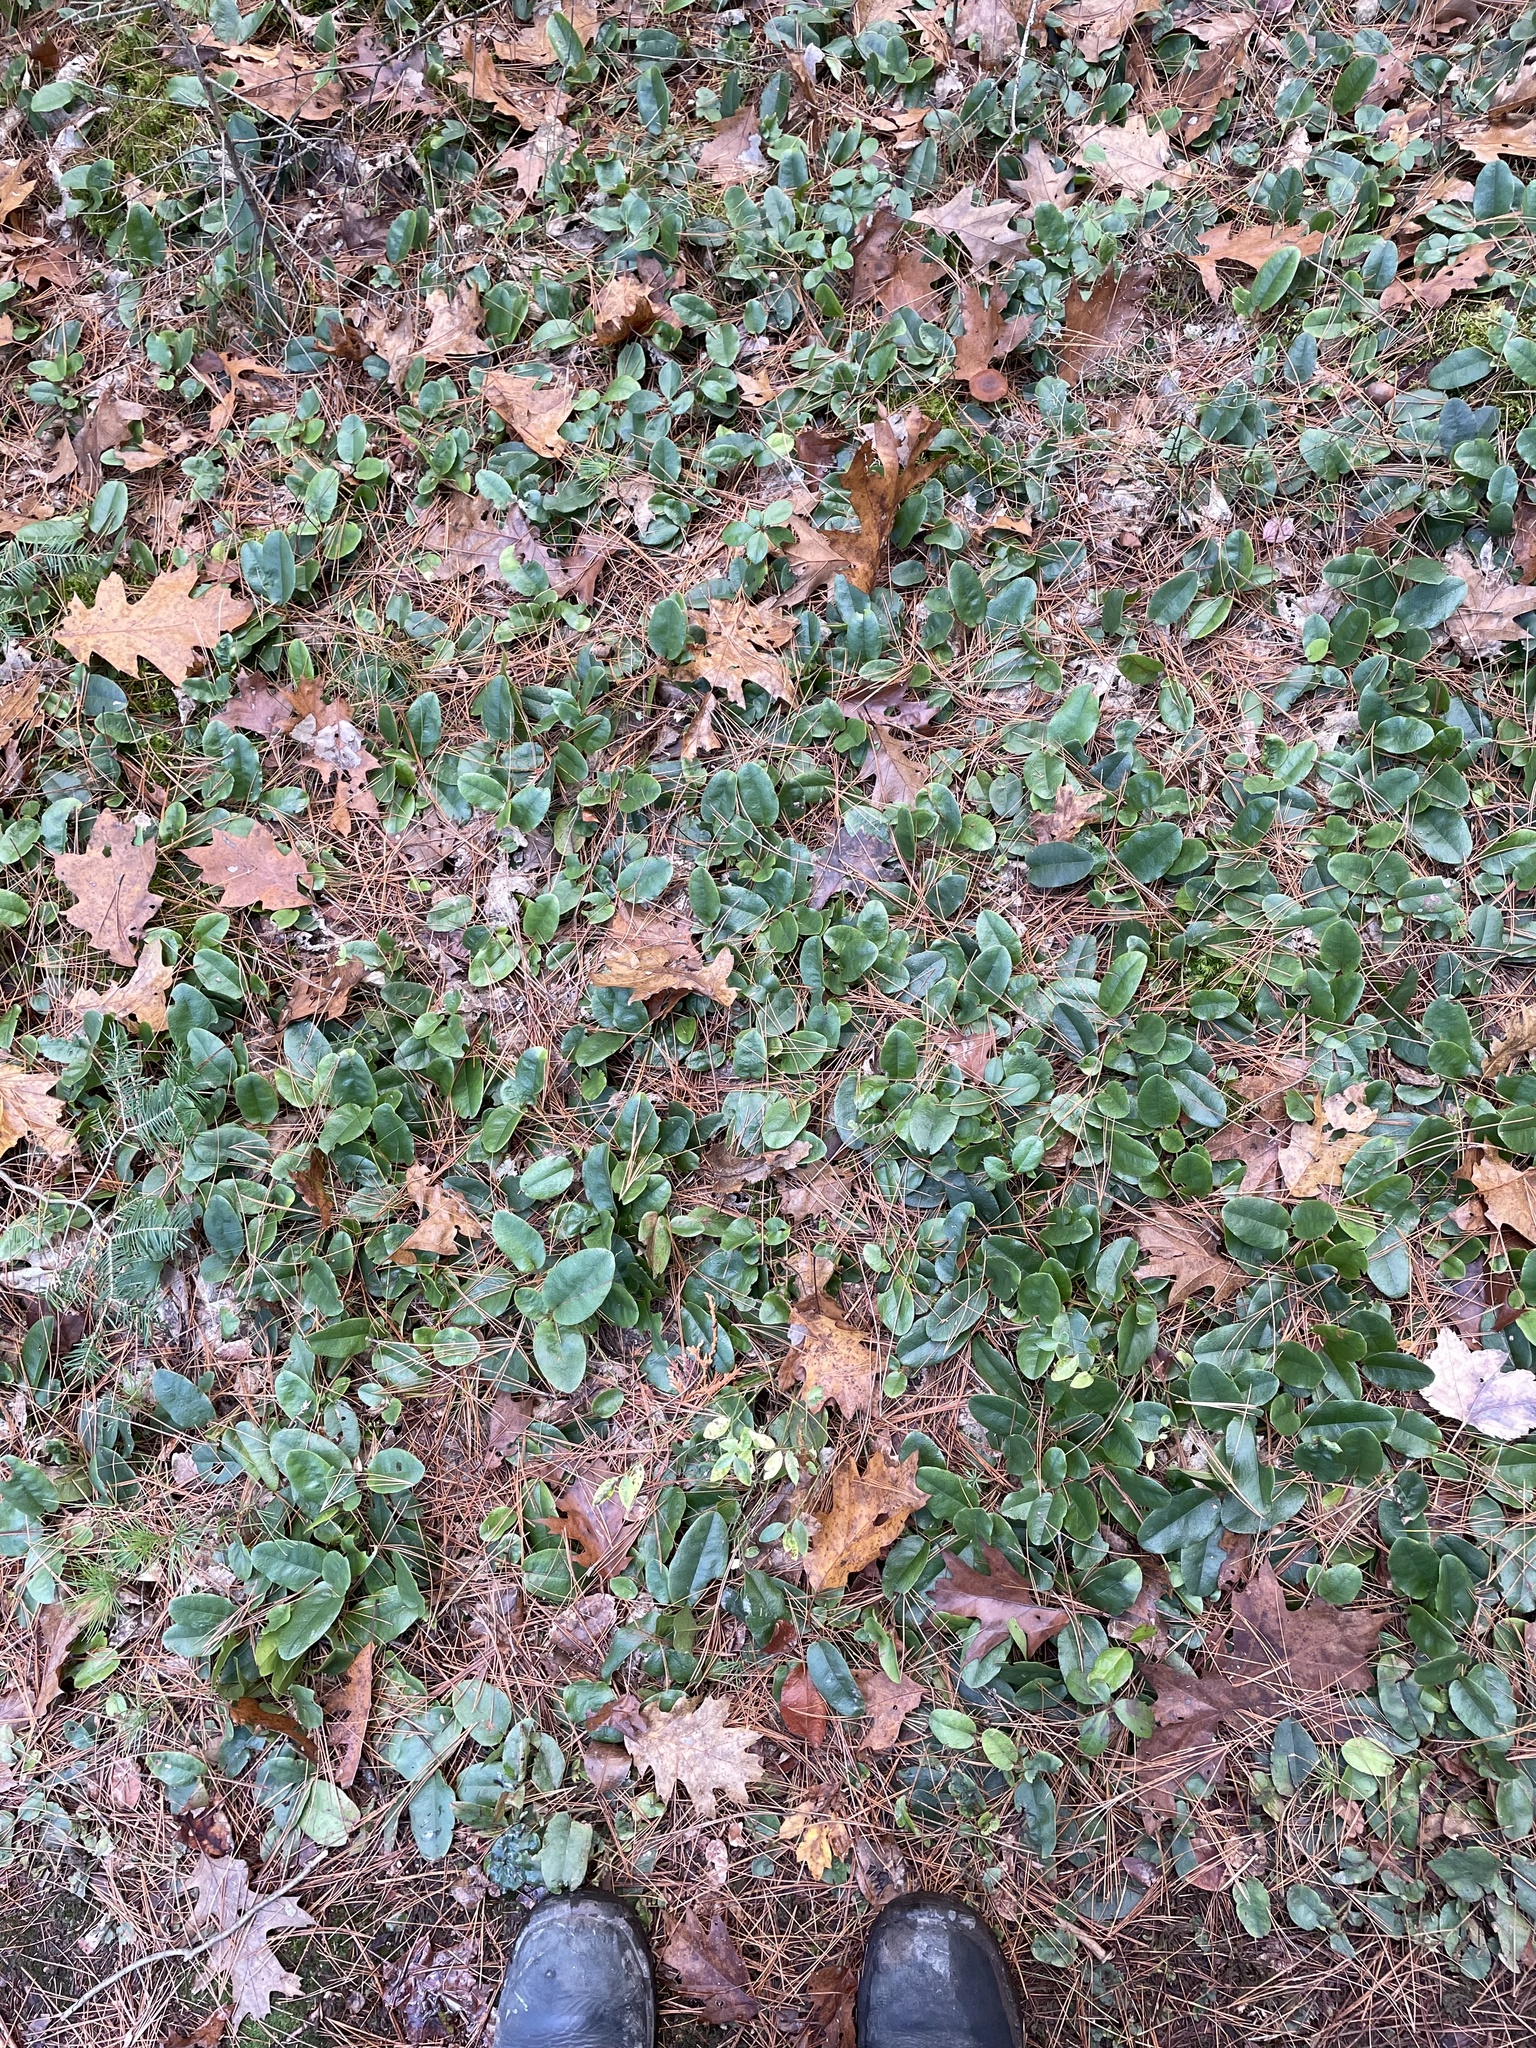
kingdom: Plantae
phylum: Tracheophyta
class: Magnoliopsida
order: Ericales
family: Ericaceae
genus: Epigaea
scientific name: Epigaea repens
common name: Gravelroot
